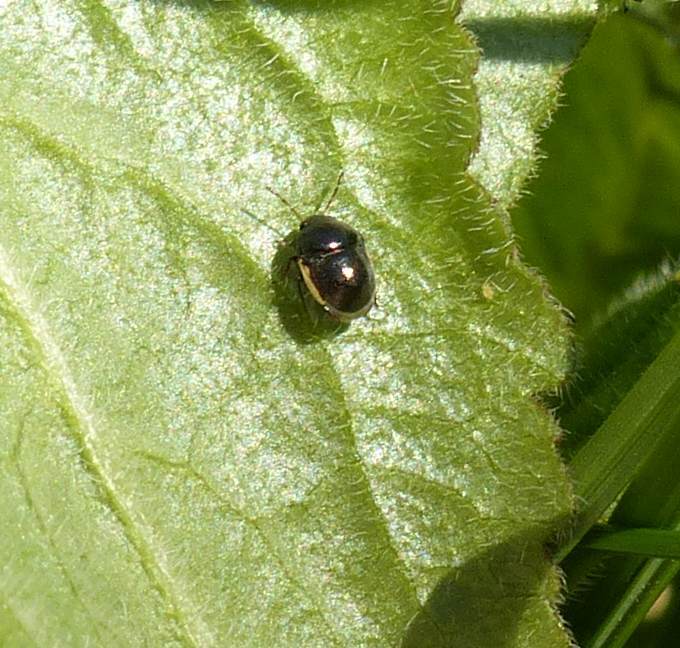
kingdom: Animalia
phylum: Arthropoda
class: Insecta
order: Hemiptera
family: Thyreocoridae
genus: Corimelaena
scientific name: Corimelaena pulicaria
